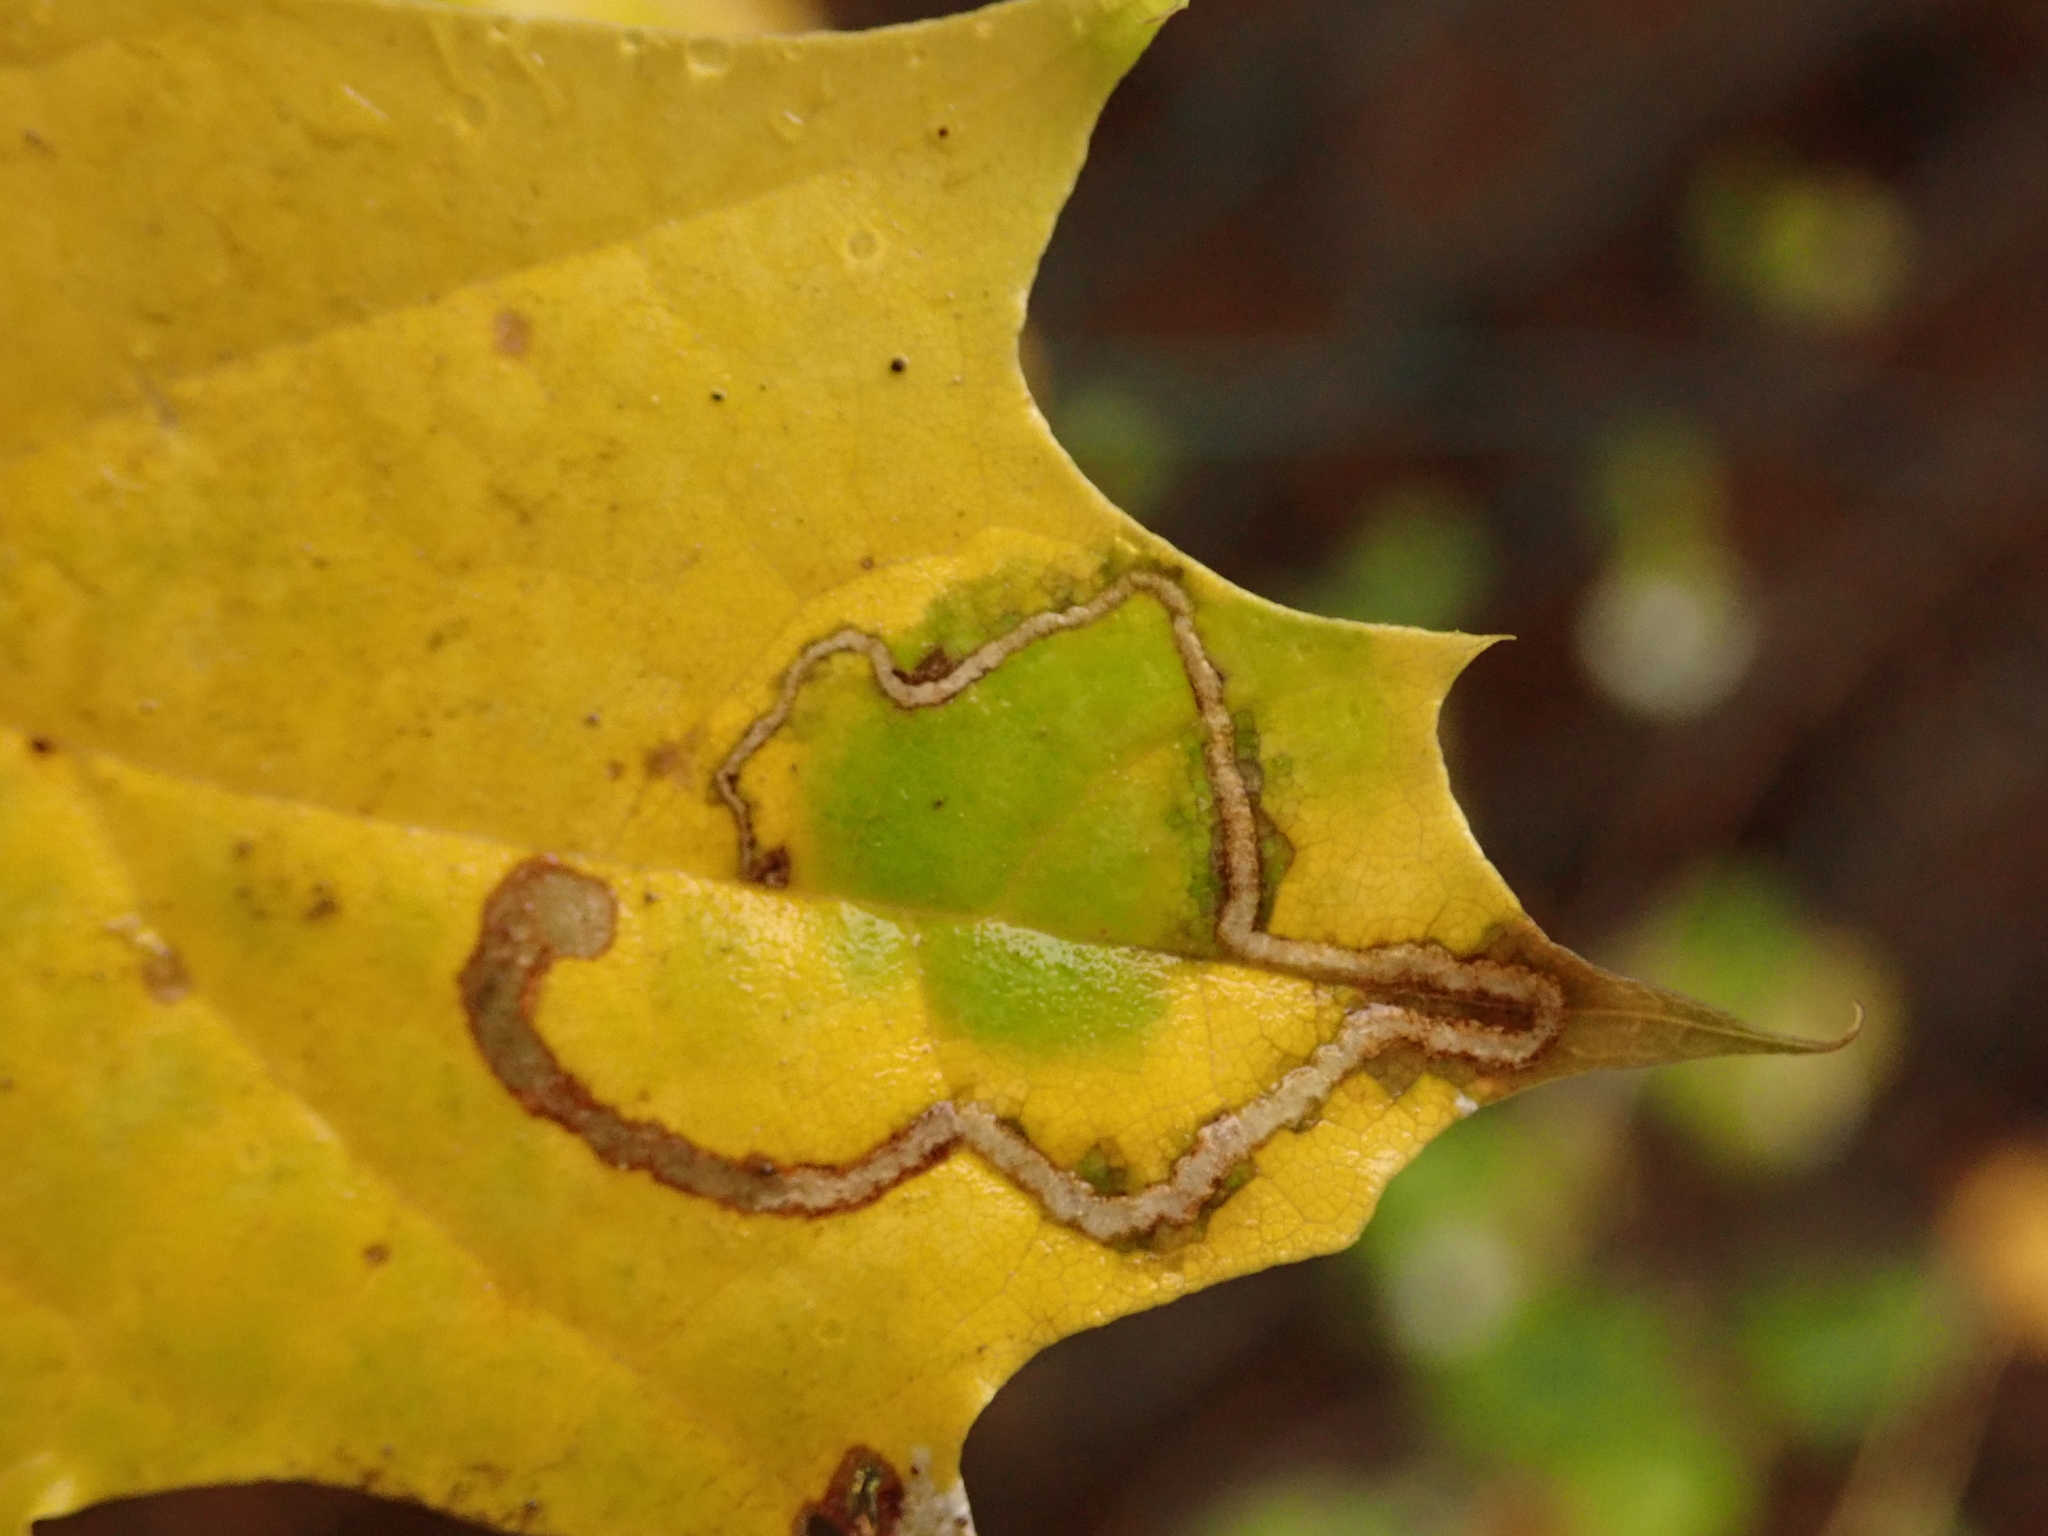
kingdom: Animalia
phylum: Arthropoda
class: Insecta
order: Lepidoptera
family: Nepticulidae
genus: Stigmella
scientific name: Stigmella aceris
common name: Scarce maple pigmy
